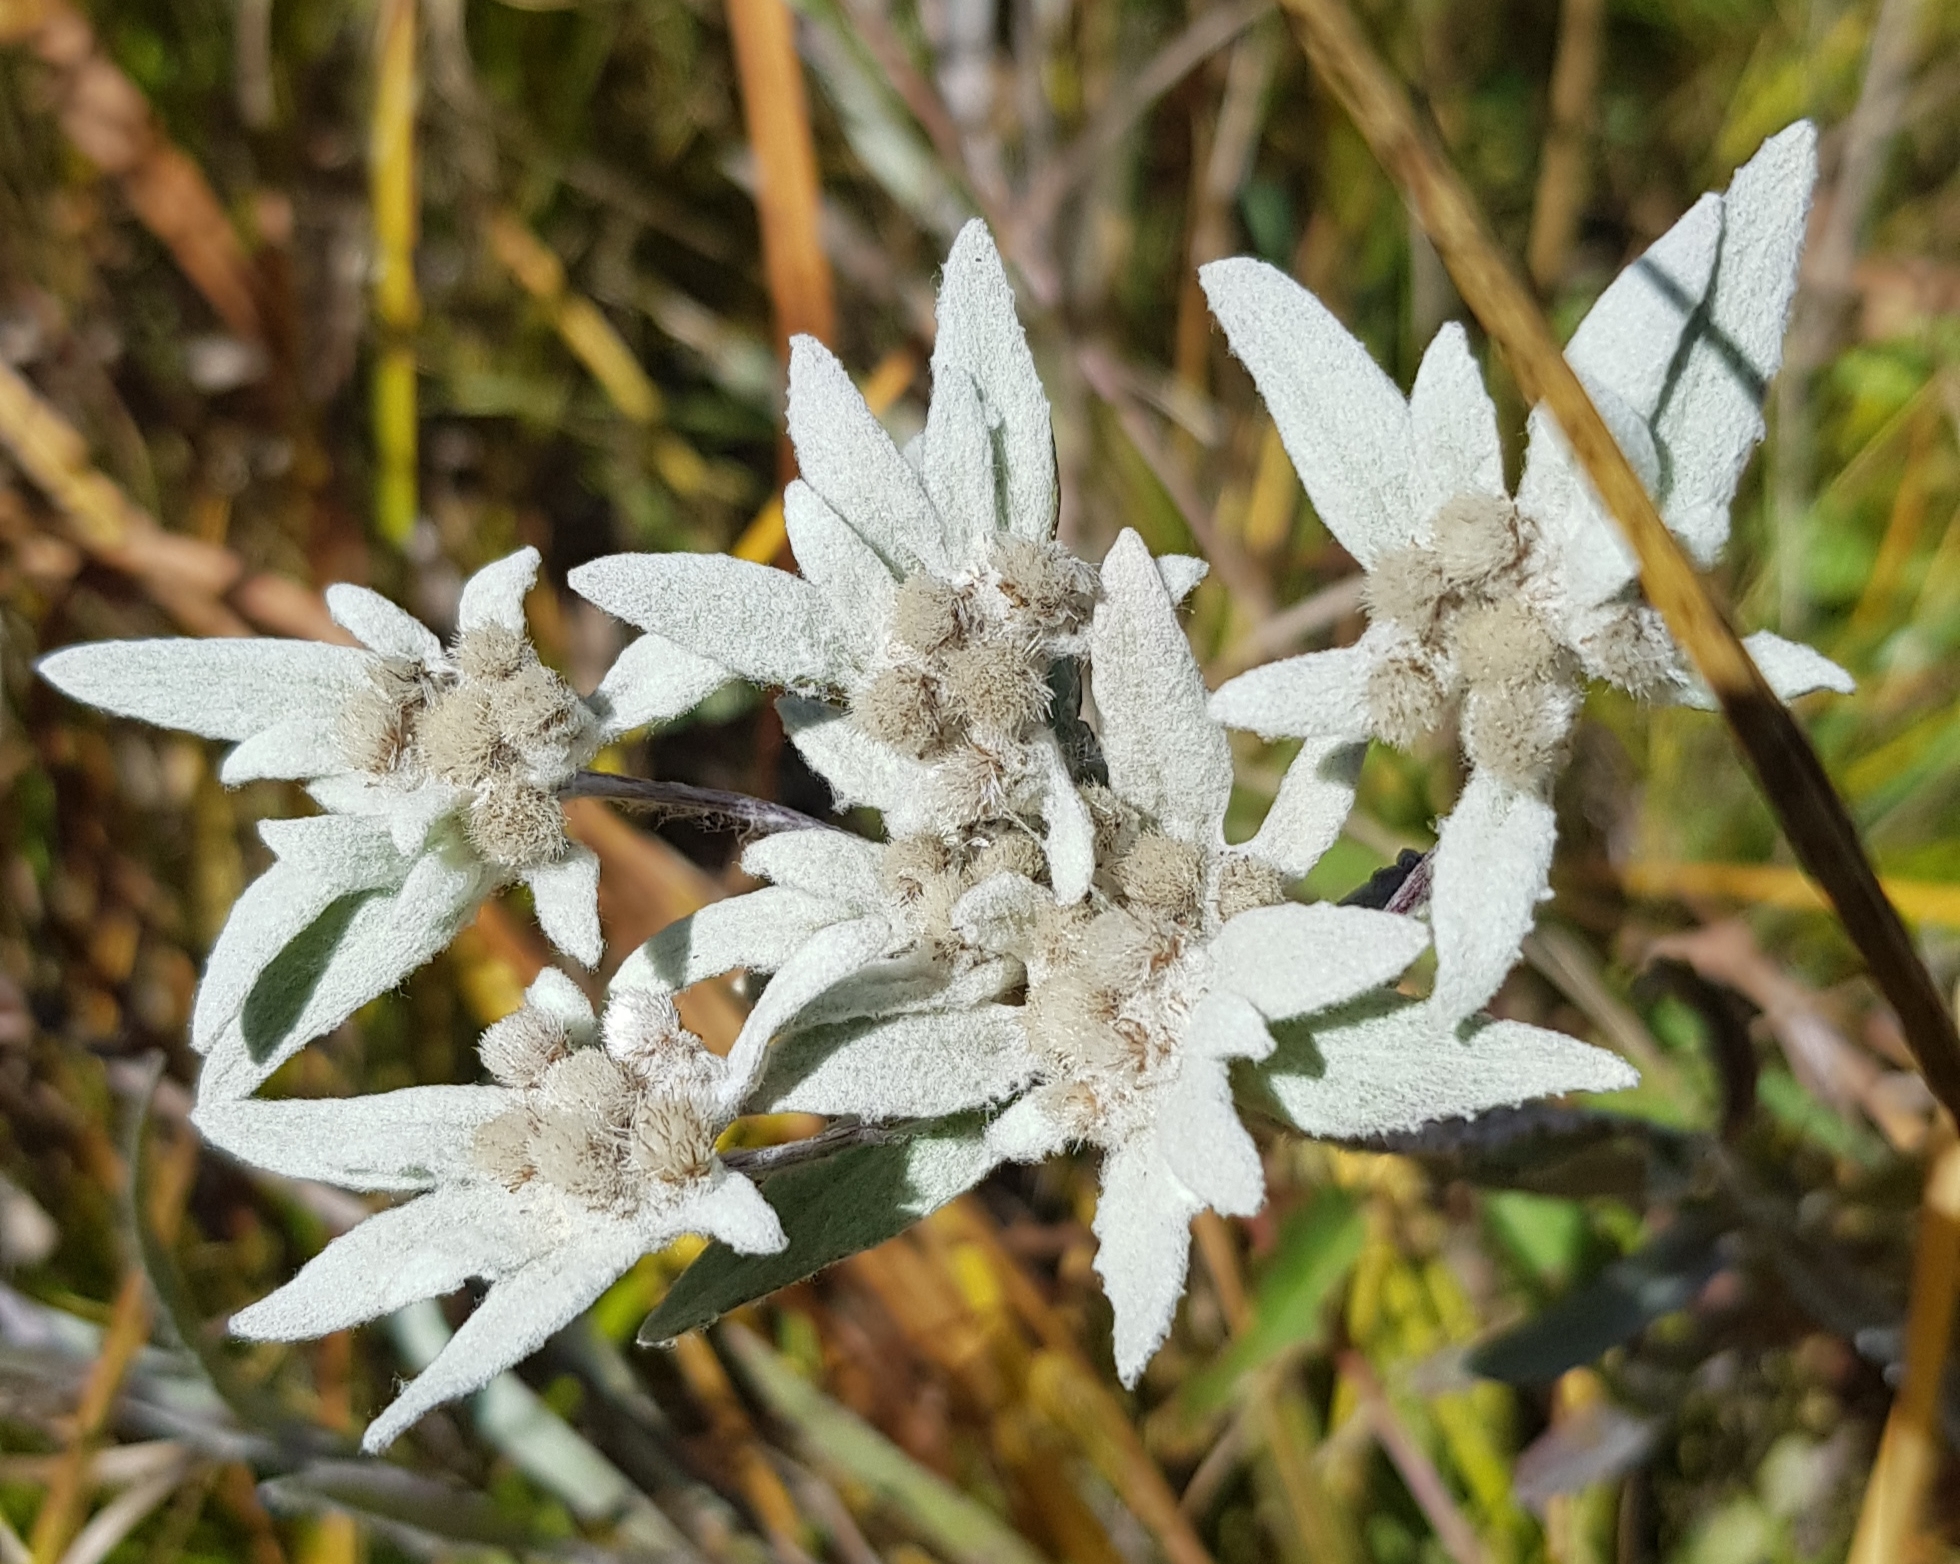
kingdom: Plantae
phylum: Tracheophyta
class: Magnoliopsida
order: Asterales
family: Asteraceae
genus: Leontopodium
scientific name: Leontopodium leontopodinum
